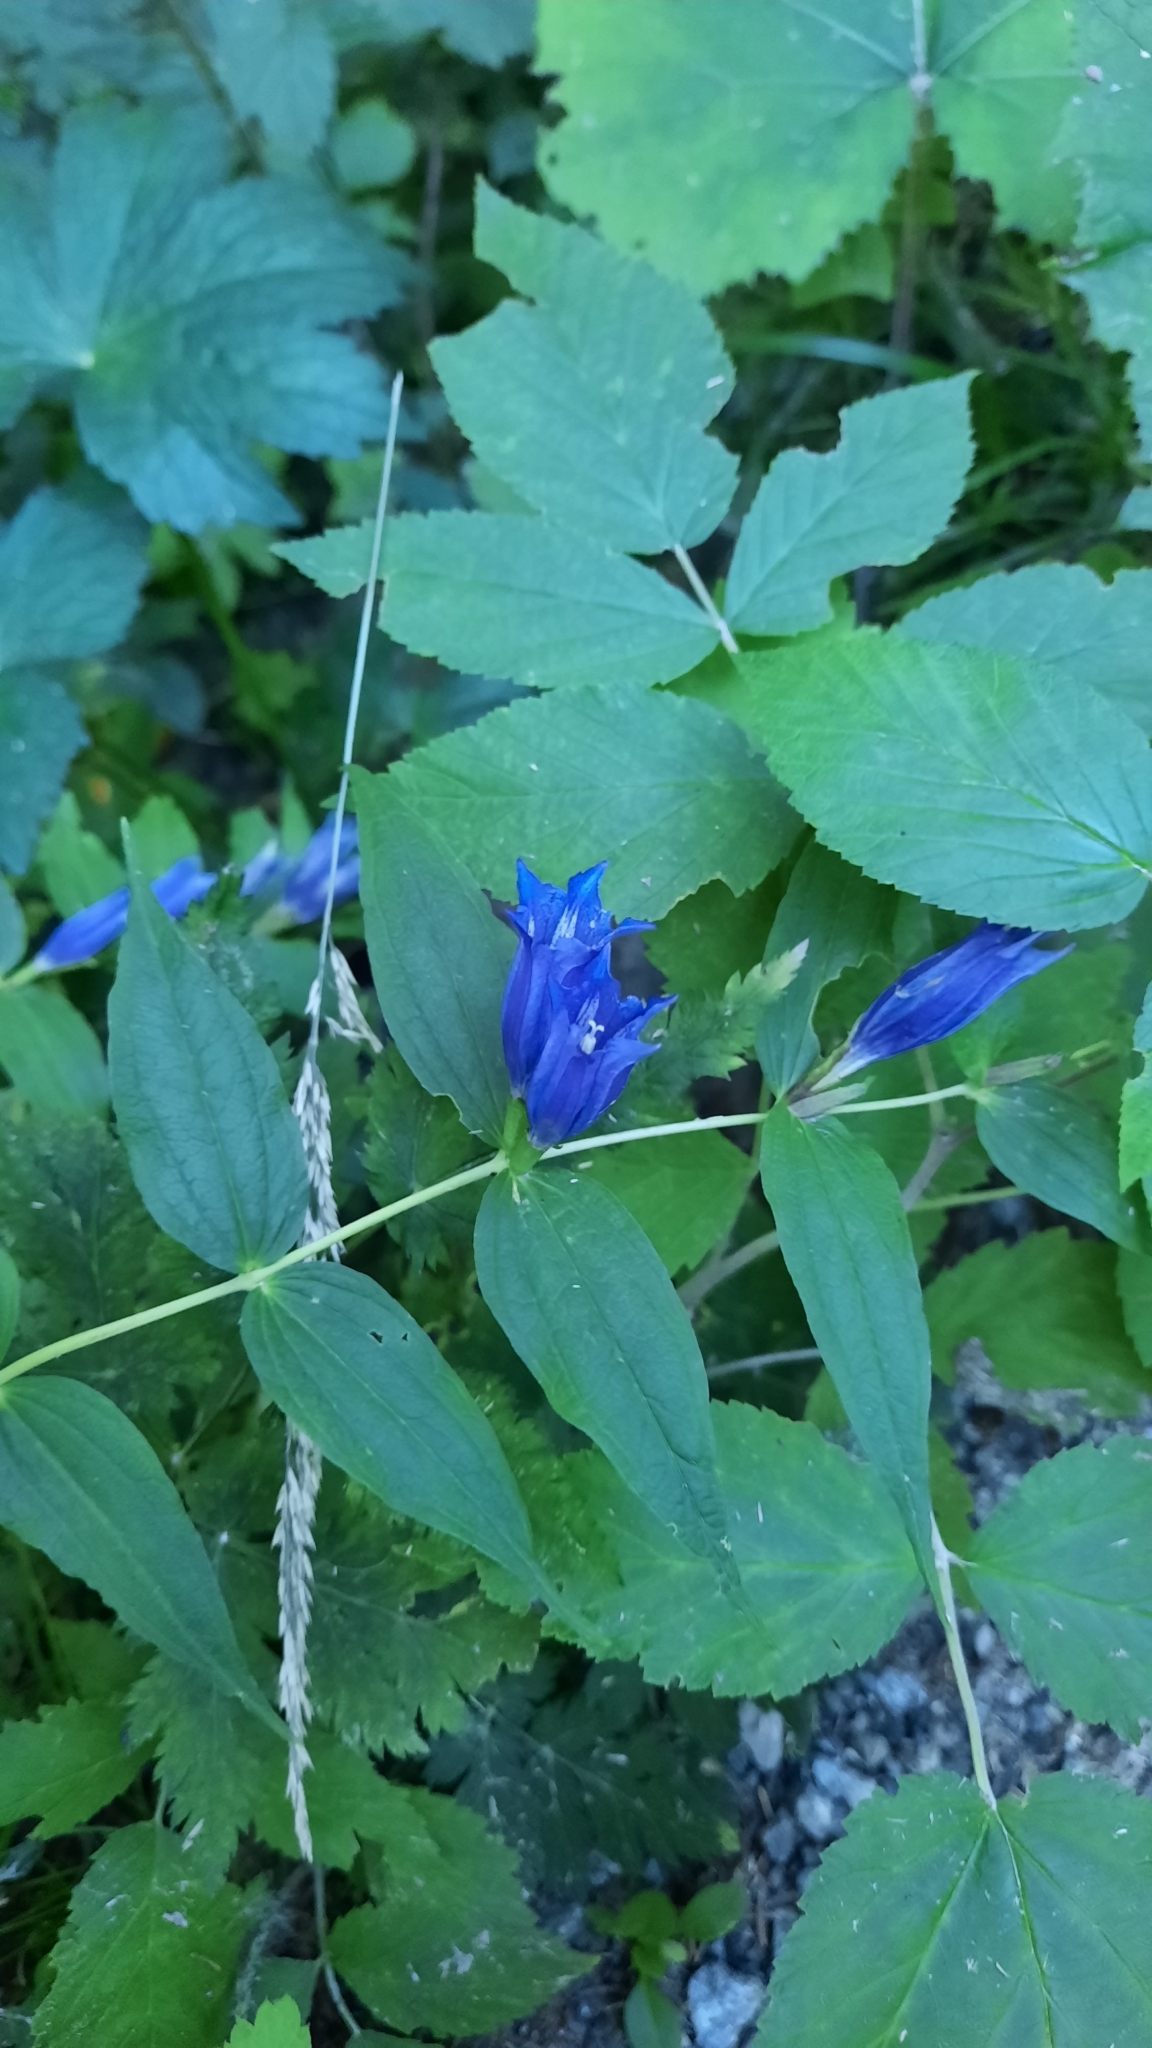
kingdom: Plantae
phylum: Tracheophyta
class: Magnoliopsida
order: Gentianales
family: Gentianaceae
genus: Gentiana
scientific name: Gentiana asclepiadea
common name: Willow gentian
